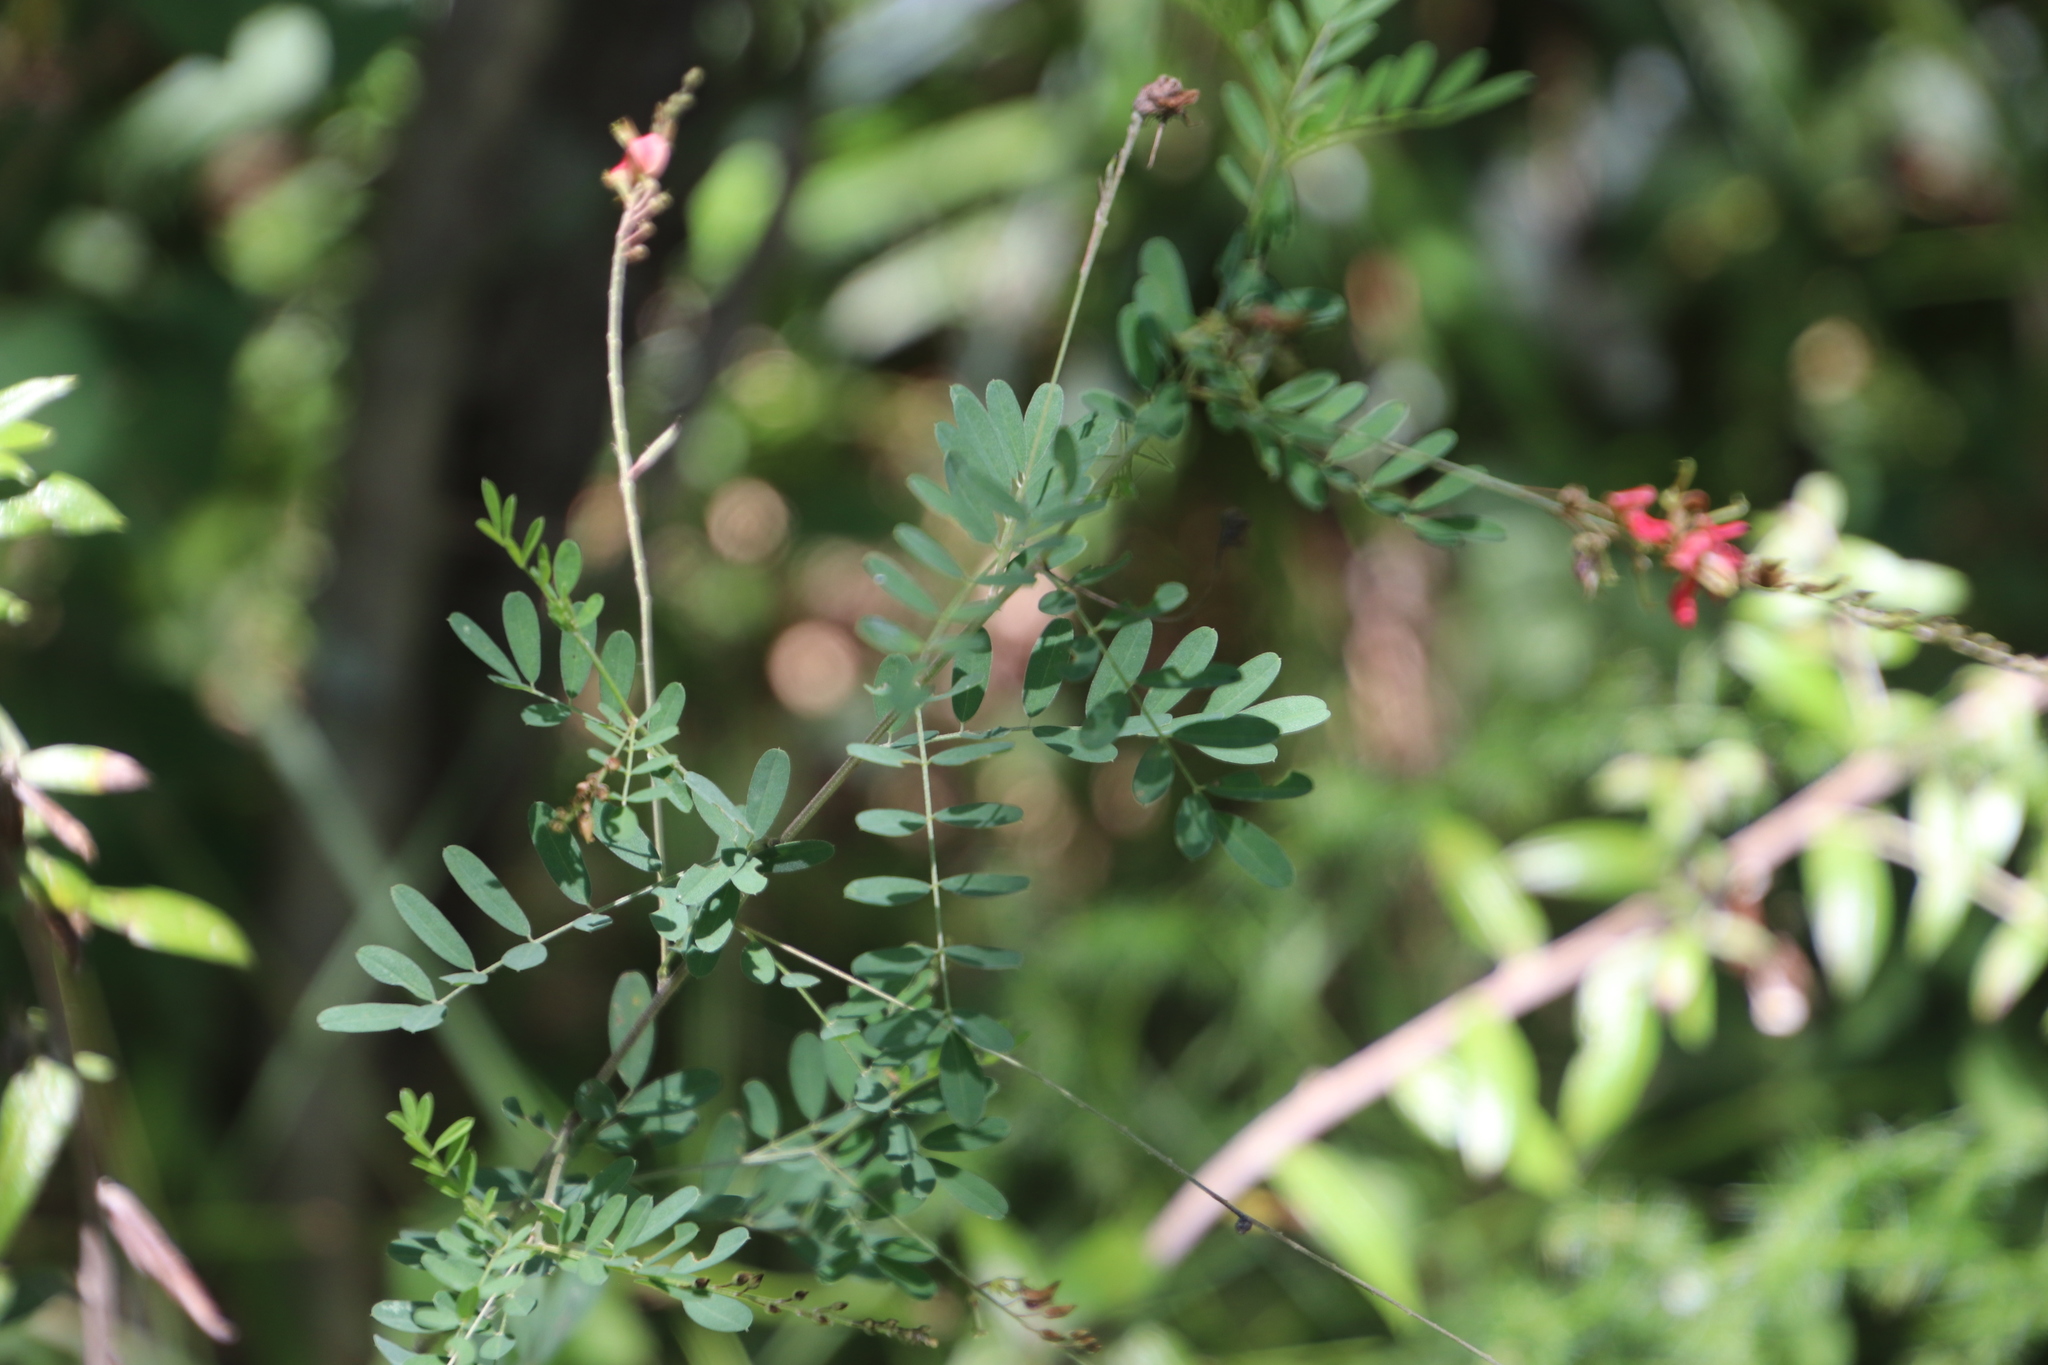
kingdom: Plantae
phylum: Tracheophyta
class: Magnoliopsida
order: Fabales
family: Fabaceae
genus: Indigofera
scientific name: Indigofera galpinii
